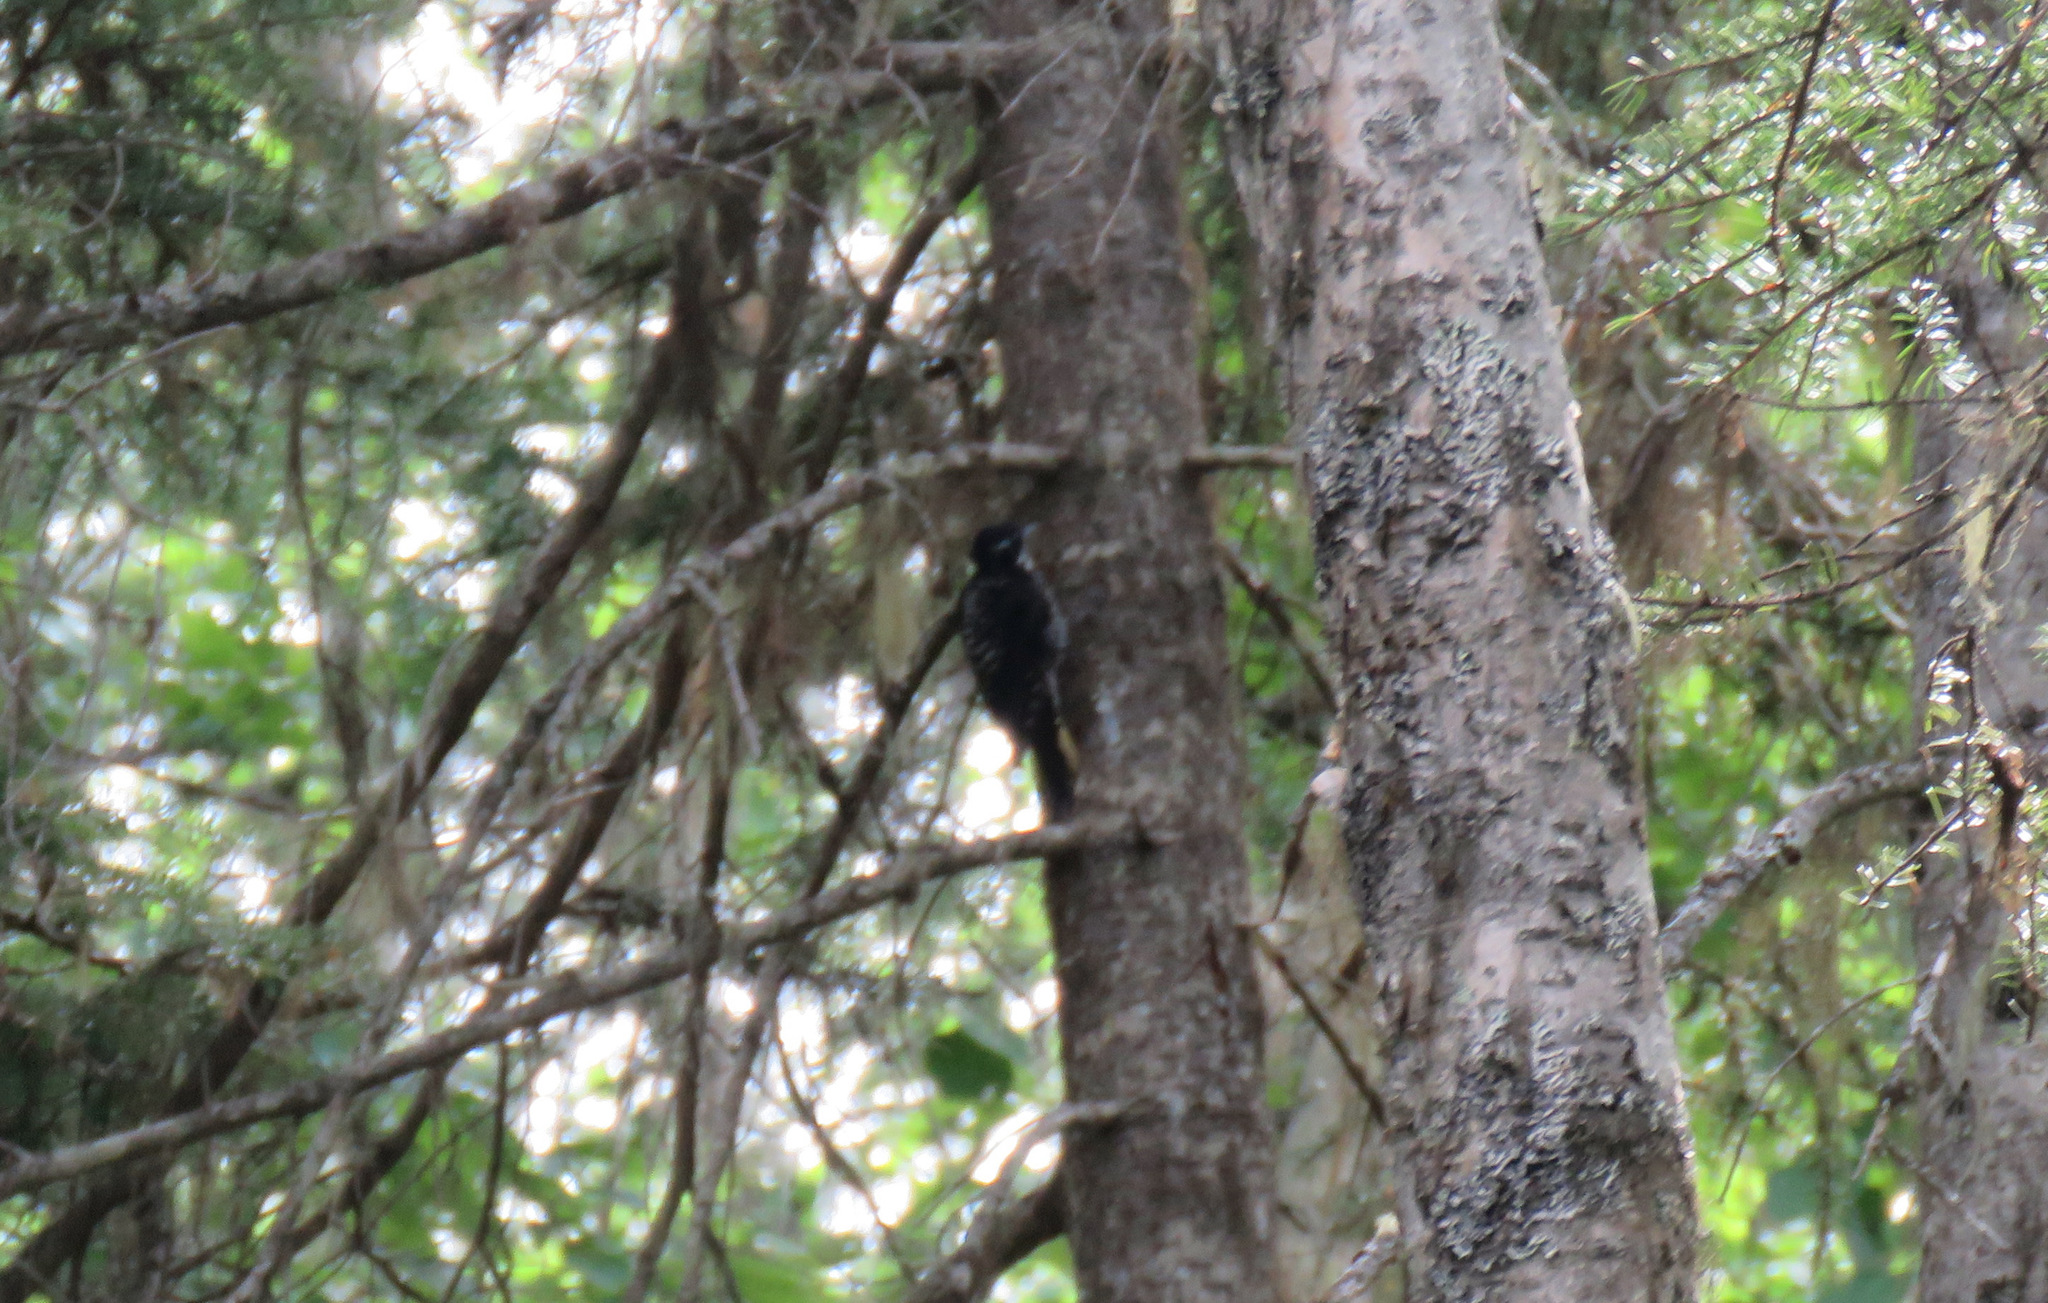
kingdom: Animalia
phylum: Chordata
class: Aves
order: Piciformes
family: Picidae
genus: Picoides
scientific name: Picoides dorsalis
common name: American three-toed woodpecker
